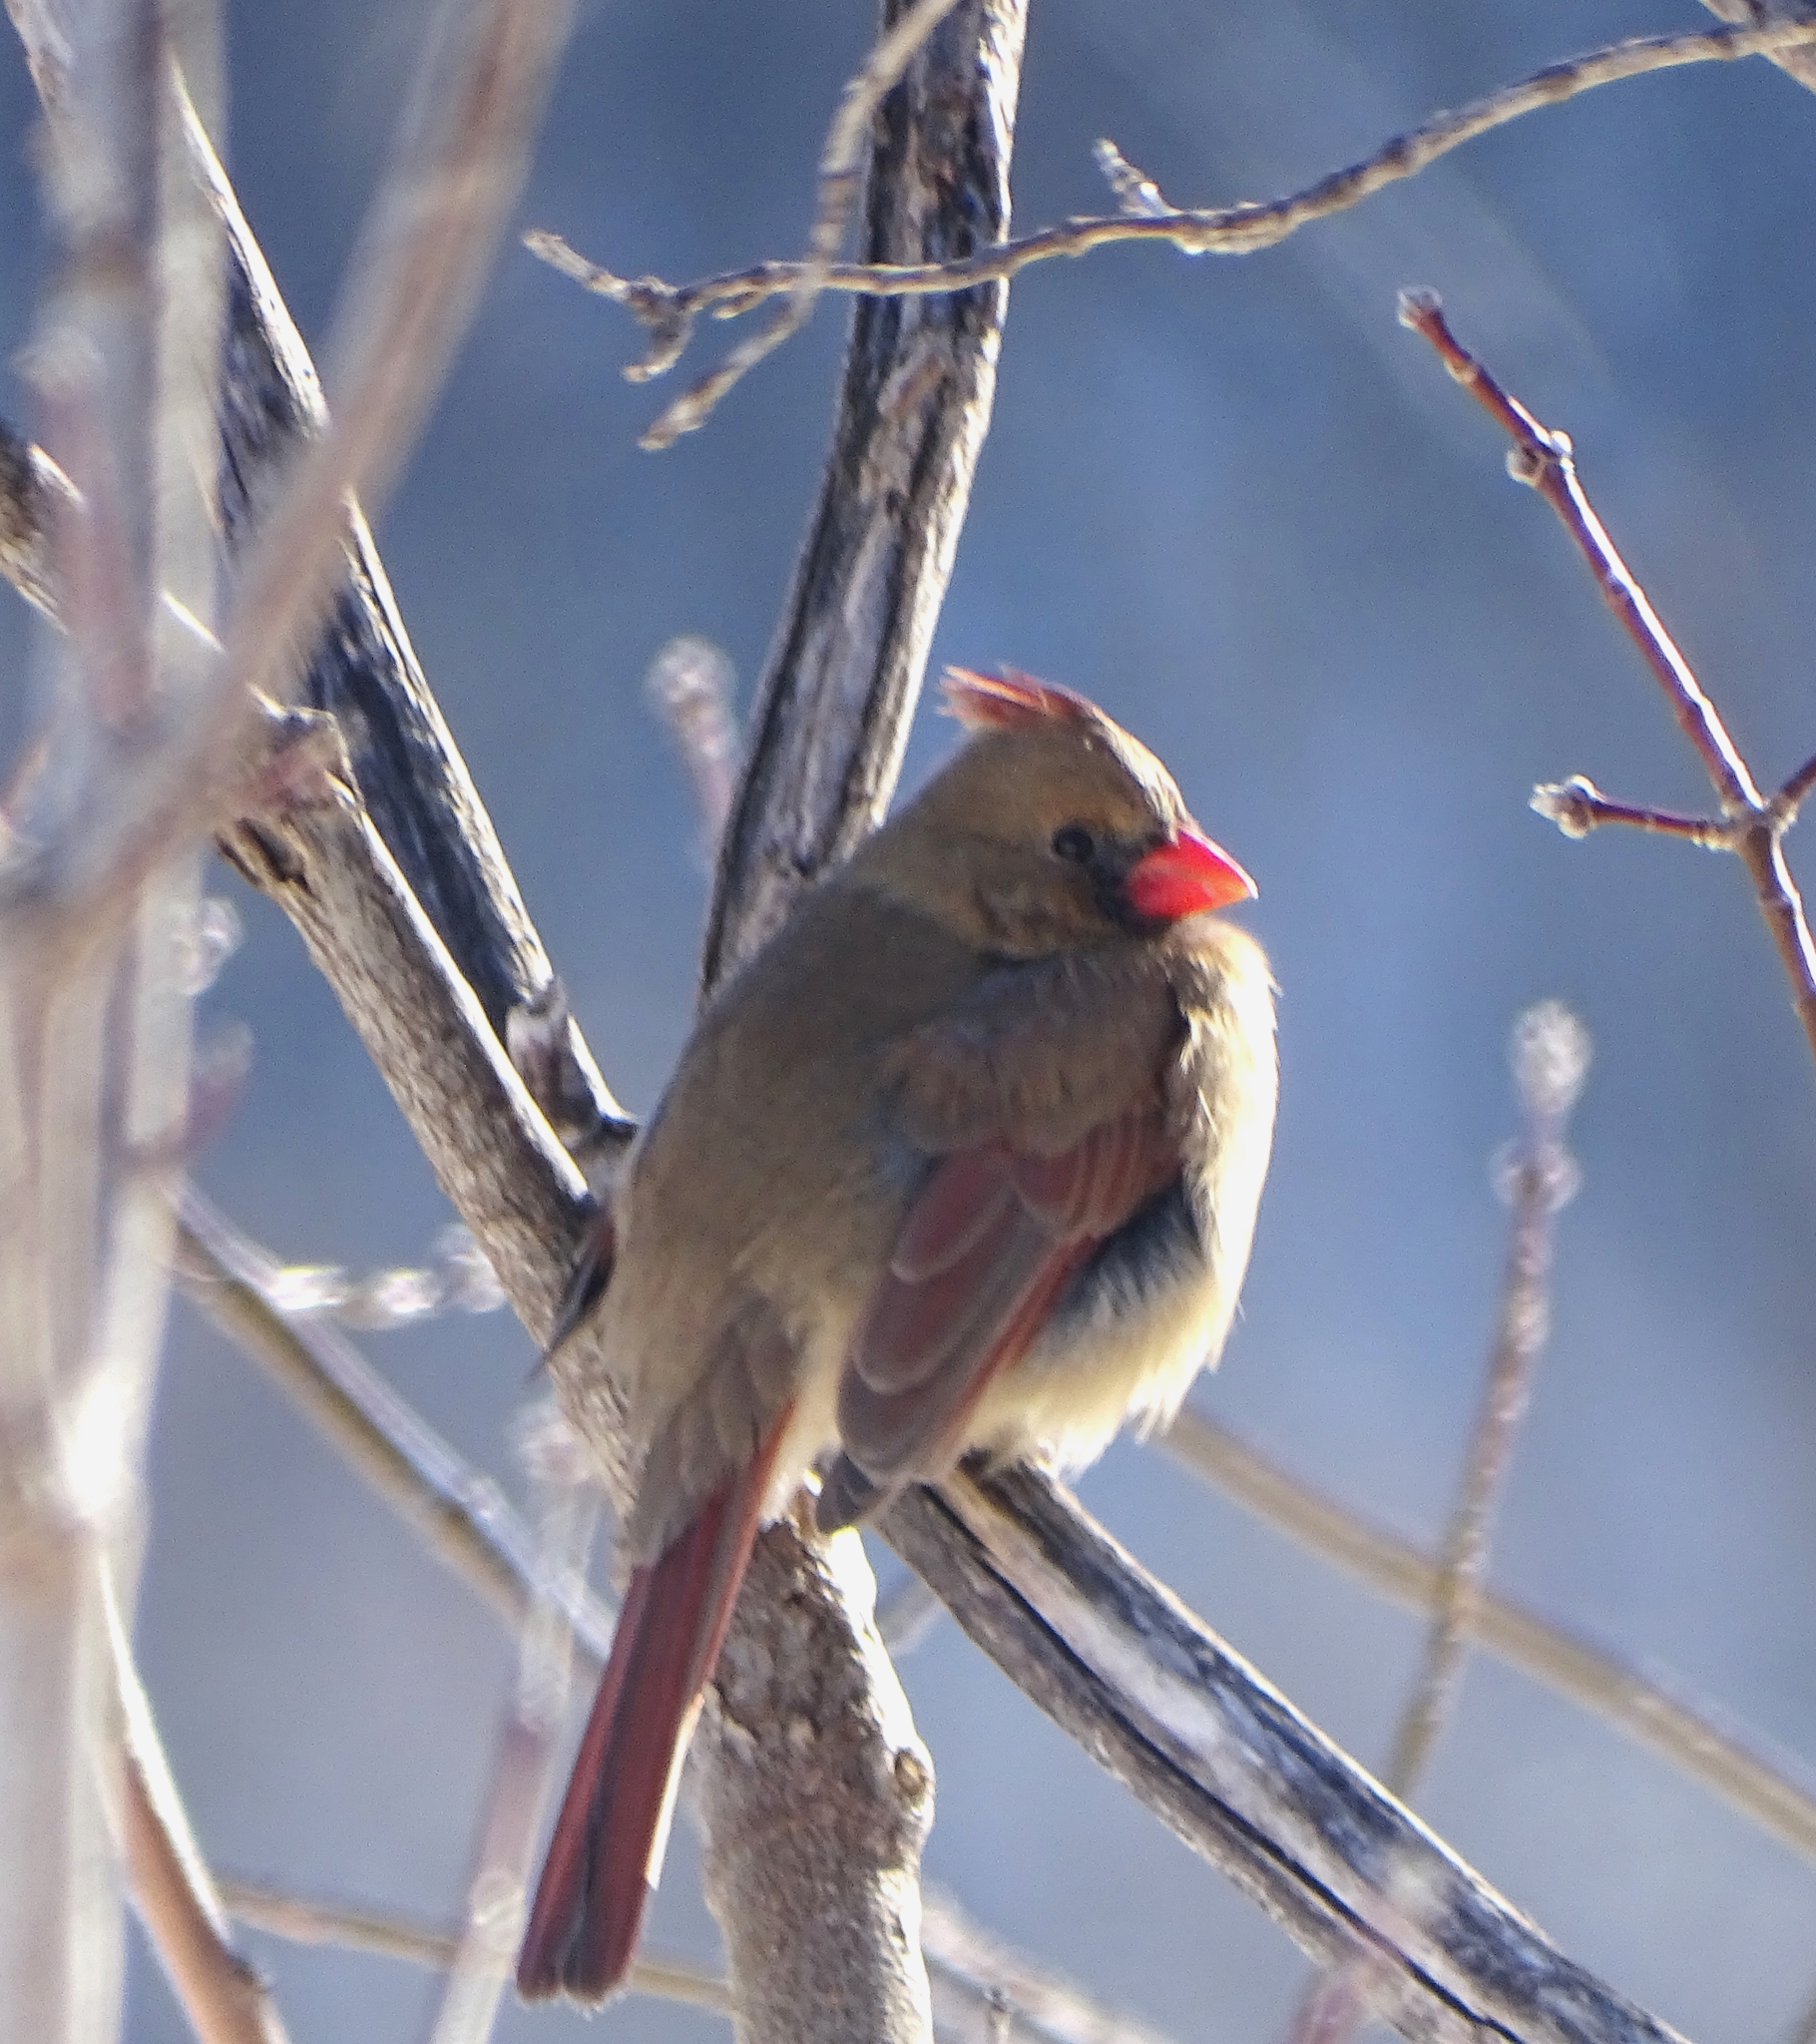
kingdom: Animalia
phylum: Chordata
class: Aves
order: Passeriformes
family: Cardinalidae
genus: Cardinalis
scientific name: Cardinalis cardinalis
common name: Northern cardinal
